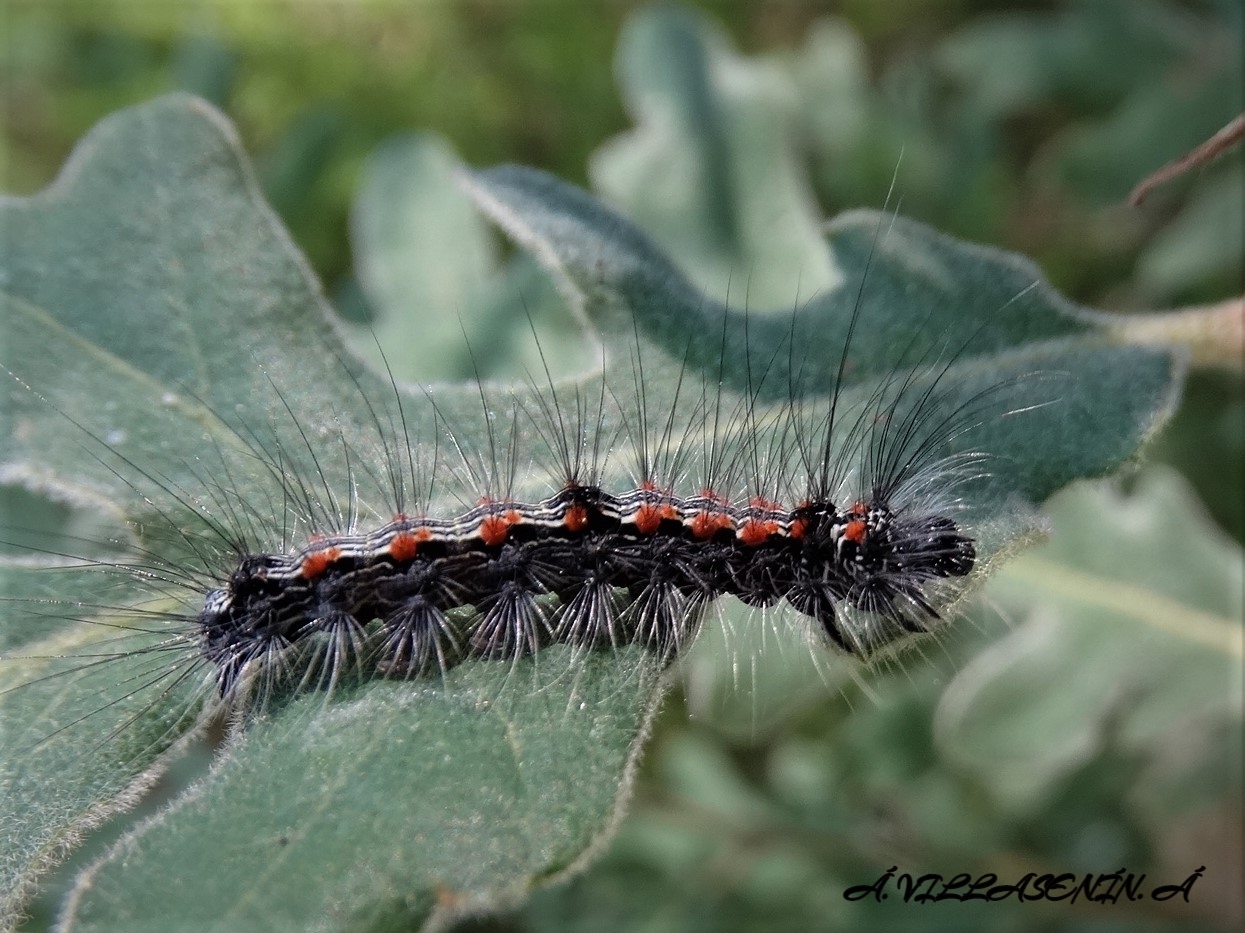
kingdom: Animalia
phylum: Arthropoda
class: Insecta
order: Lepidoptera
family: Erebidae
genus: Lithosia
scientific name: Lithosia quadra
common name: Four-spotted footman
